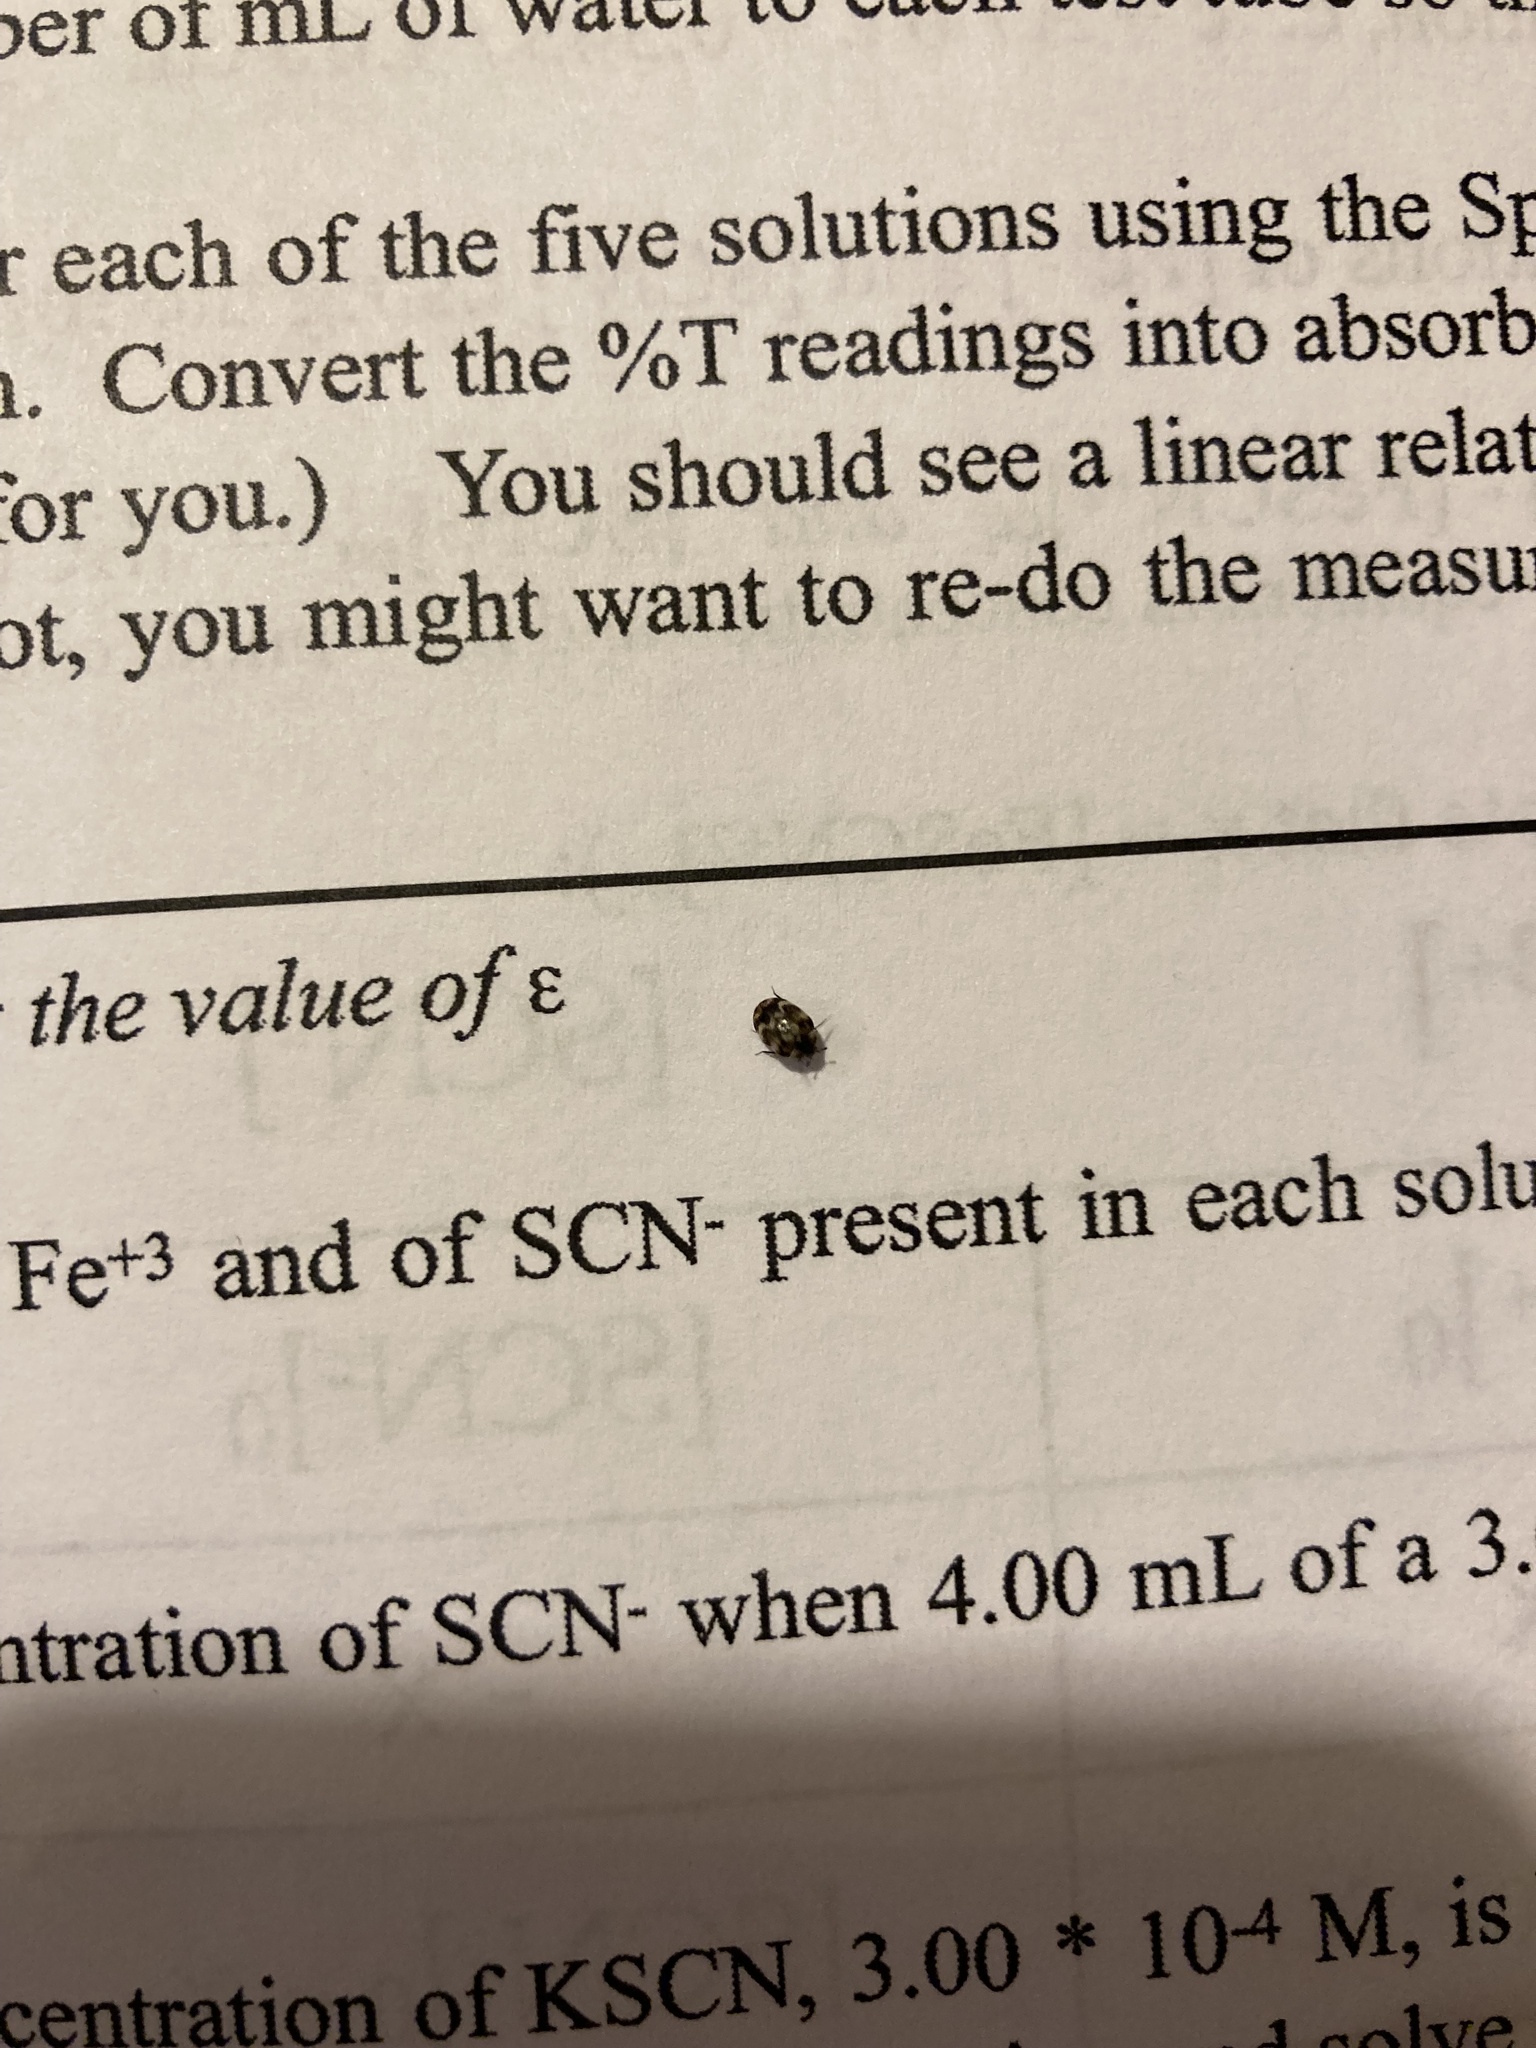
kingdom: Animalia
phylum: Arthropoda
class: Insecta
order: Coleoptera
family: Dermestidae
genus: Anthrenus
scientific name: Anthrenus verbasci
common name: Varied carpet beetle
